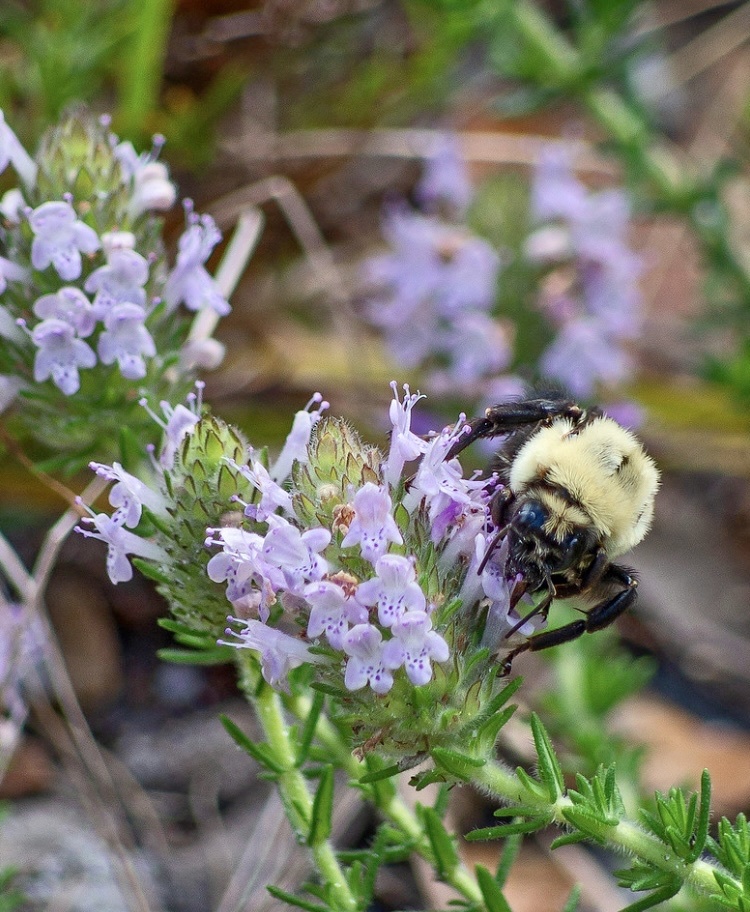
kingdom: Plantae
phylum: Tracheophyta
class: Magnoliopsida
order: Lamiales
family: Lamiaceae
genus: Piloblephis
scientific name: Piloblephis rigida
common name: Wild pennyroyal
